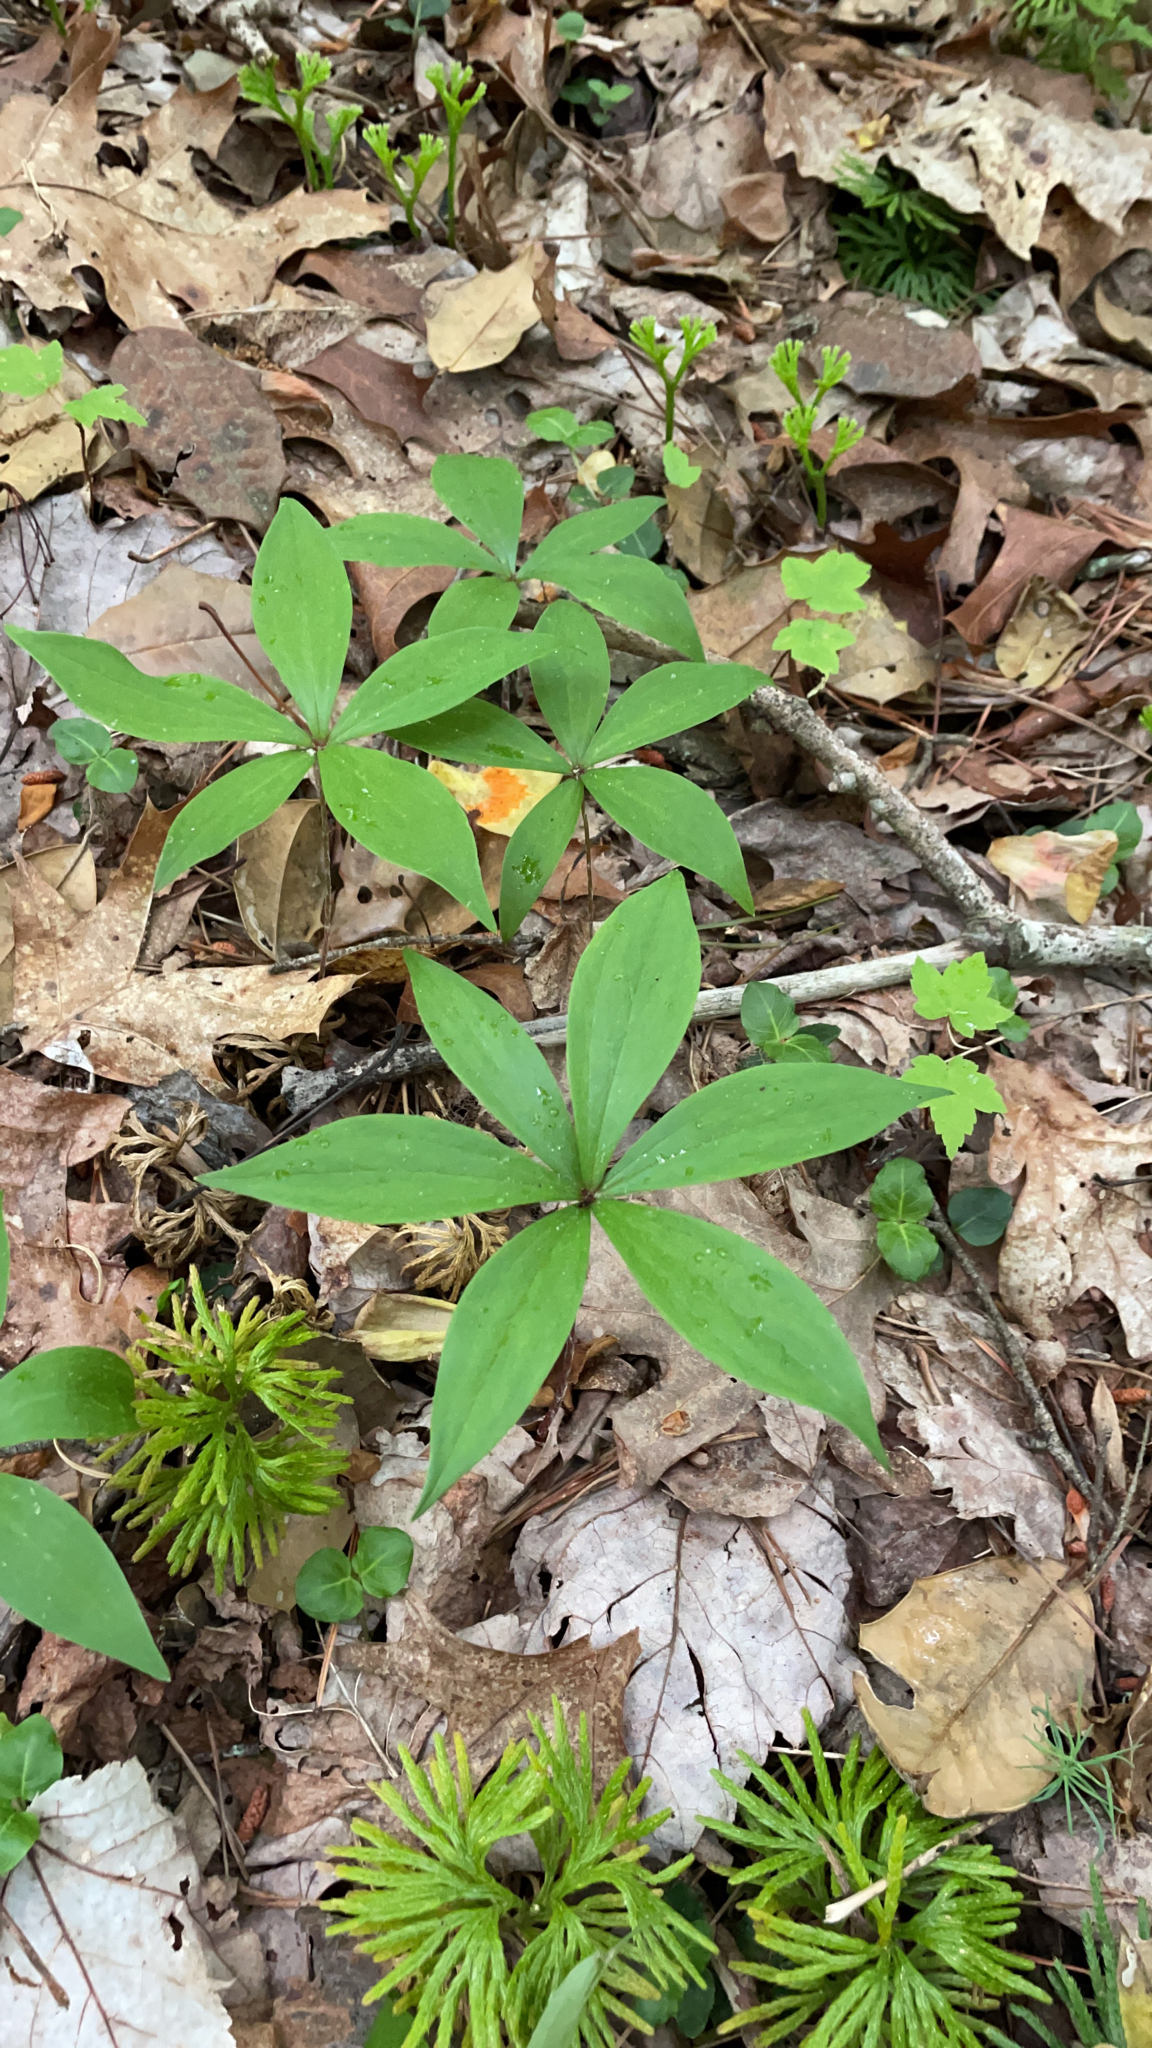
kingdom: Plantae
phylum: Tracheophyta
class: Liliopsida
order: Liliales
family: Liliaceae
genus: Medeola
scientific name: Medeola virginiana
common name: Indian cucumber-root
